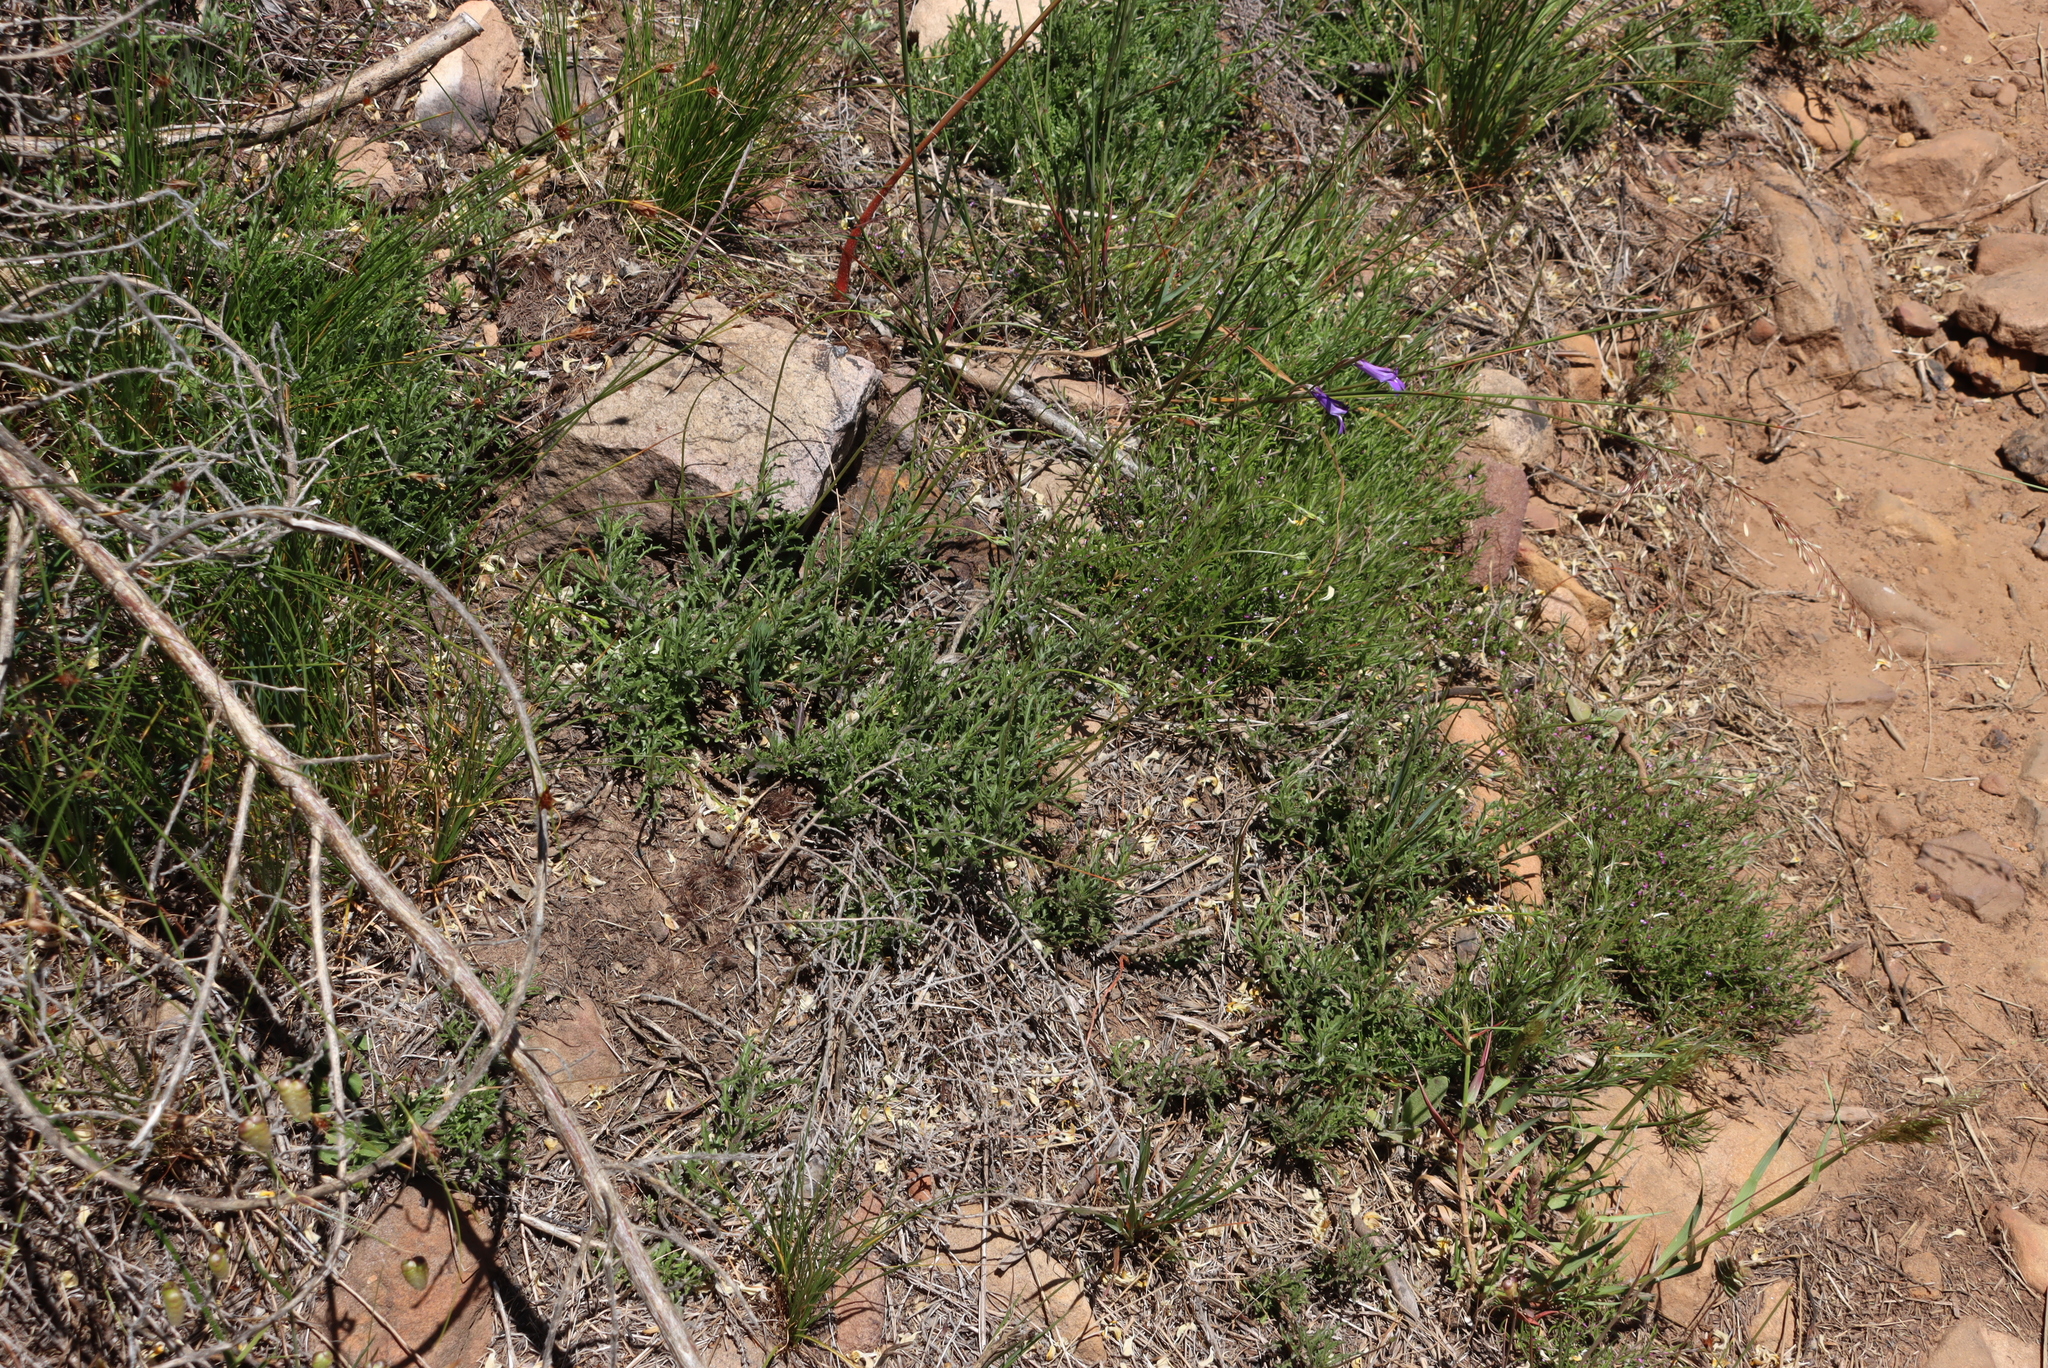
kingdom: Plantae
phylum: Tracheophyta
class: Magnoliopsida
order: Asterales
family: Campanulaceae
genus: Lobelia
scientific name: Lobelia coronopifolia
